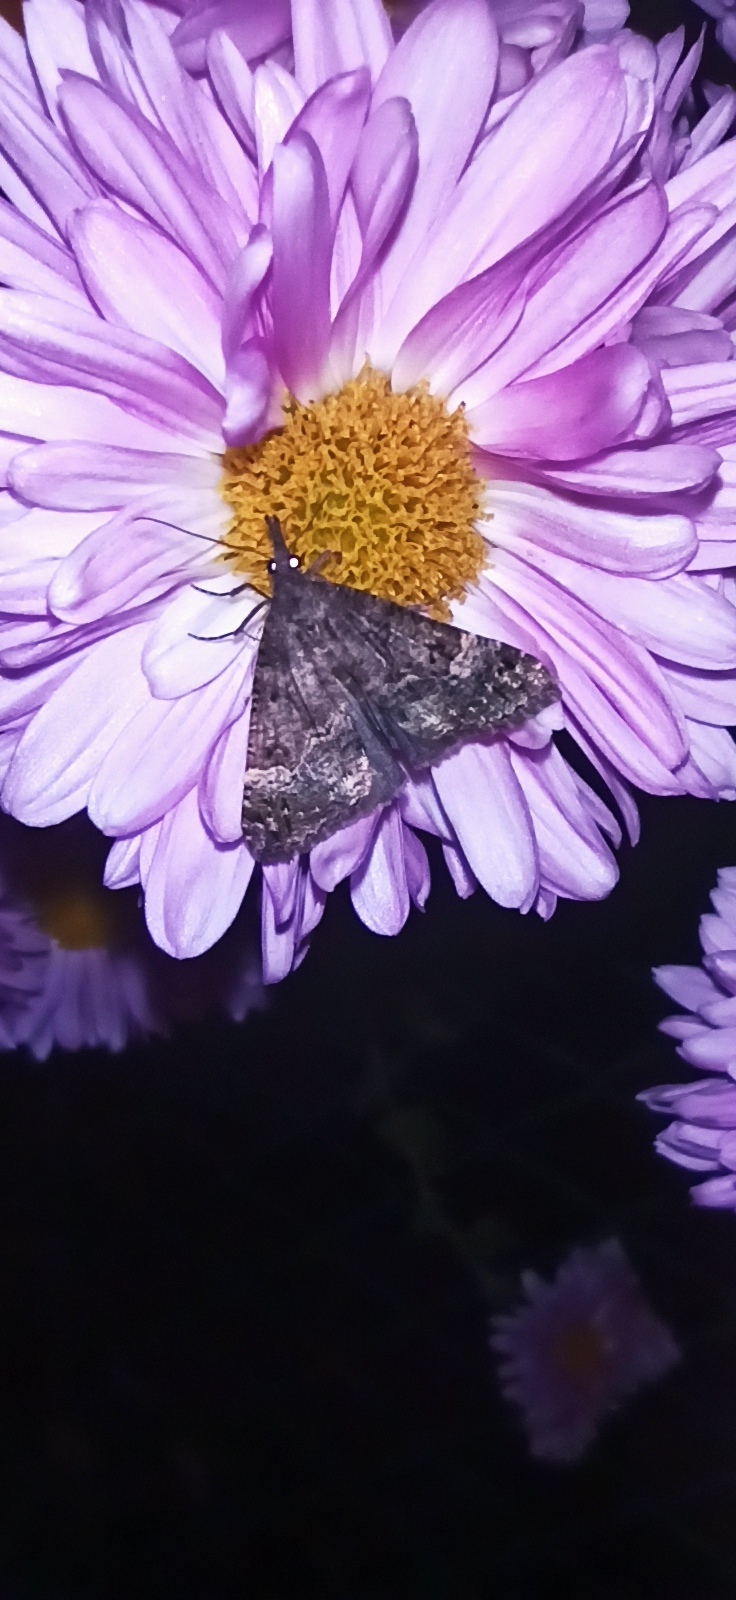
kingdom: Animalia
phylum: Arthropoda
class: Insecta
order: Lepidoptera
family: Erebidae
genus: Hypena
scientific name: Hypena obsitalis
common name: Bloxworth snout
